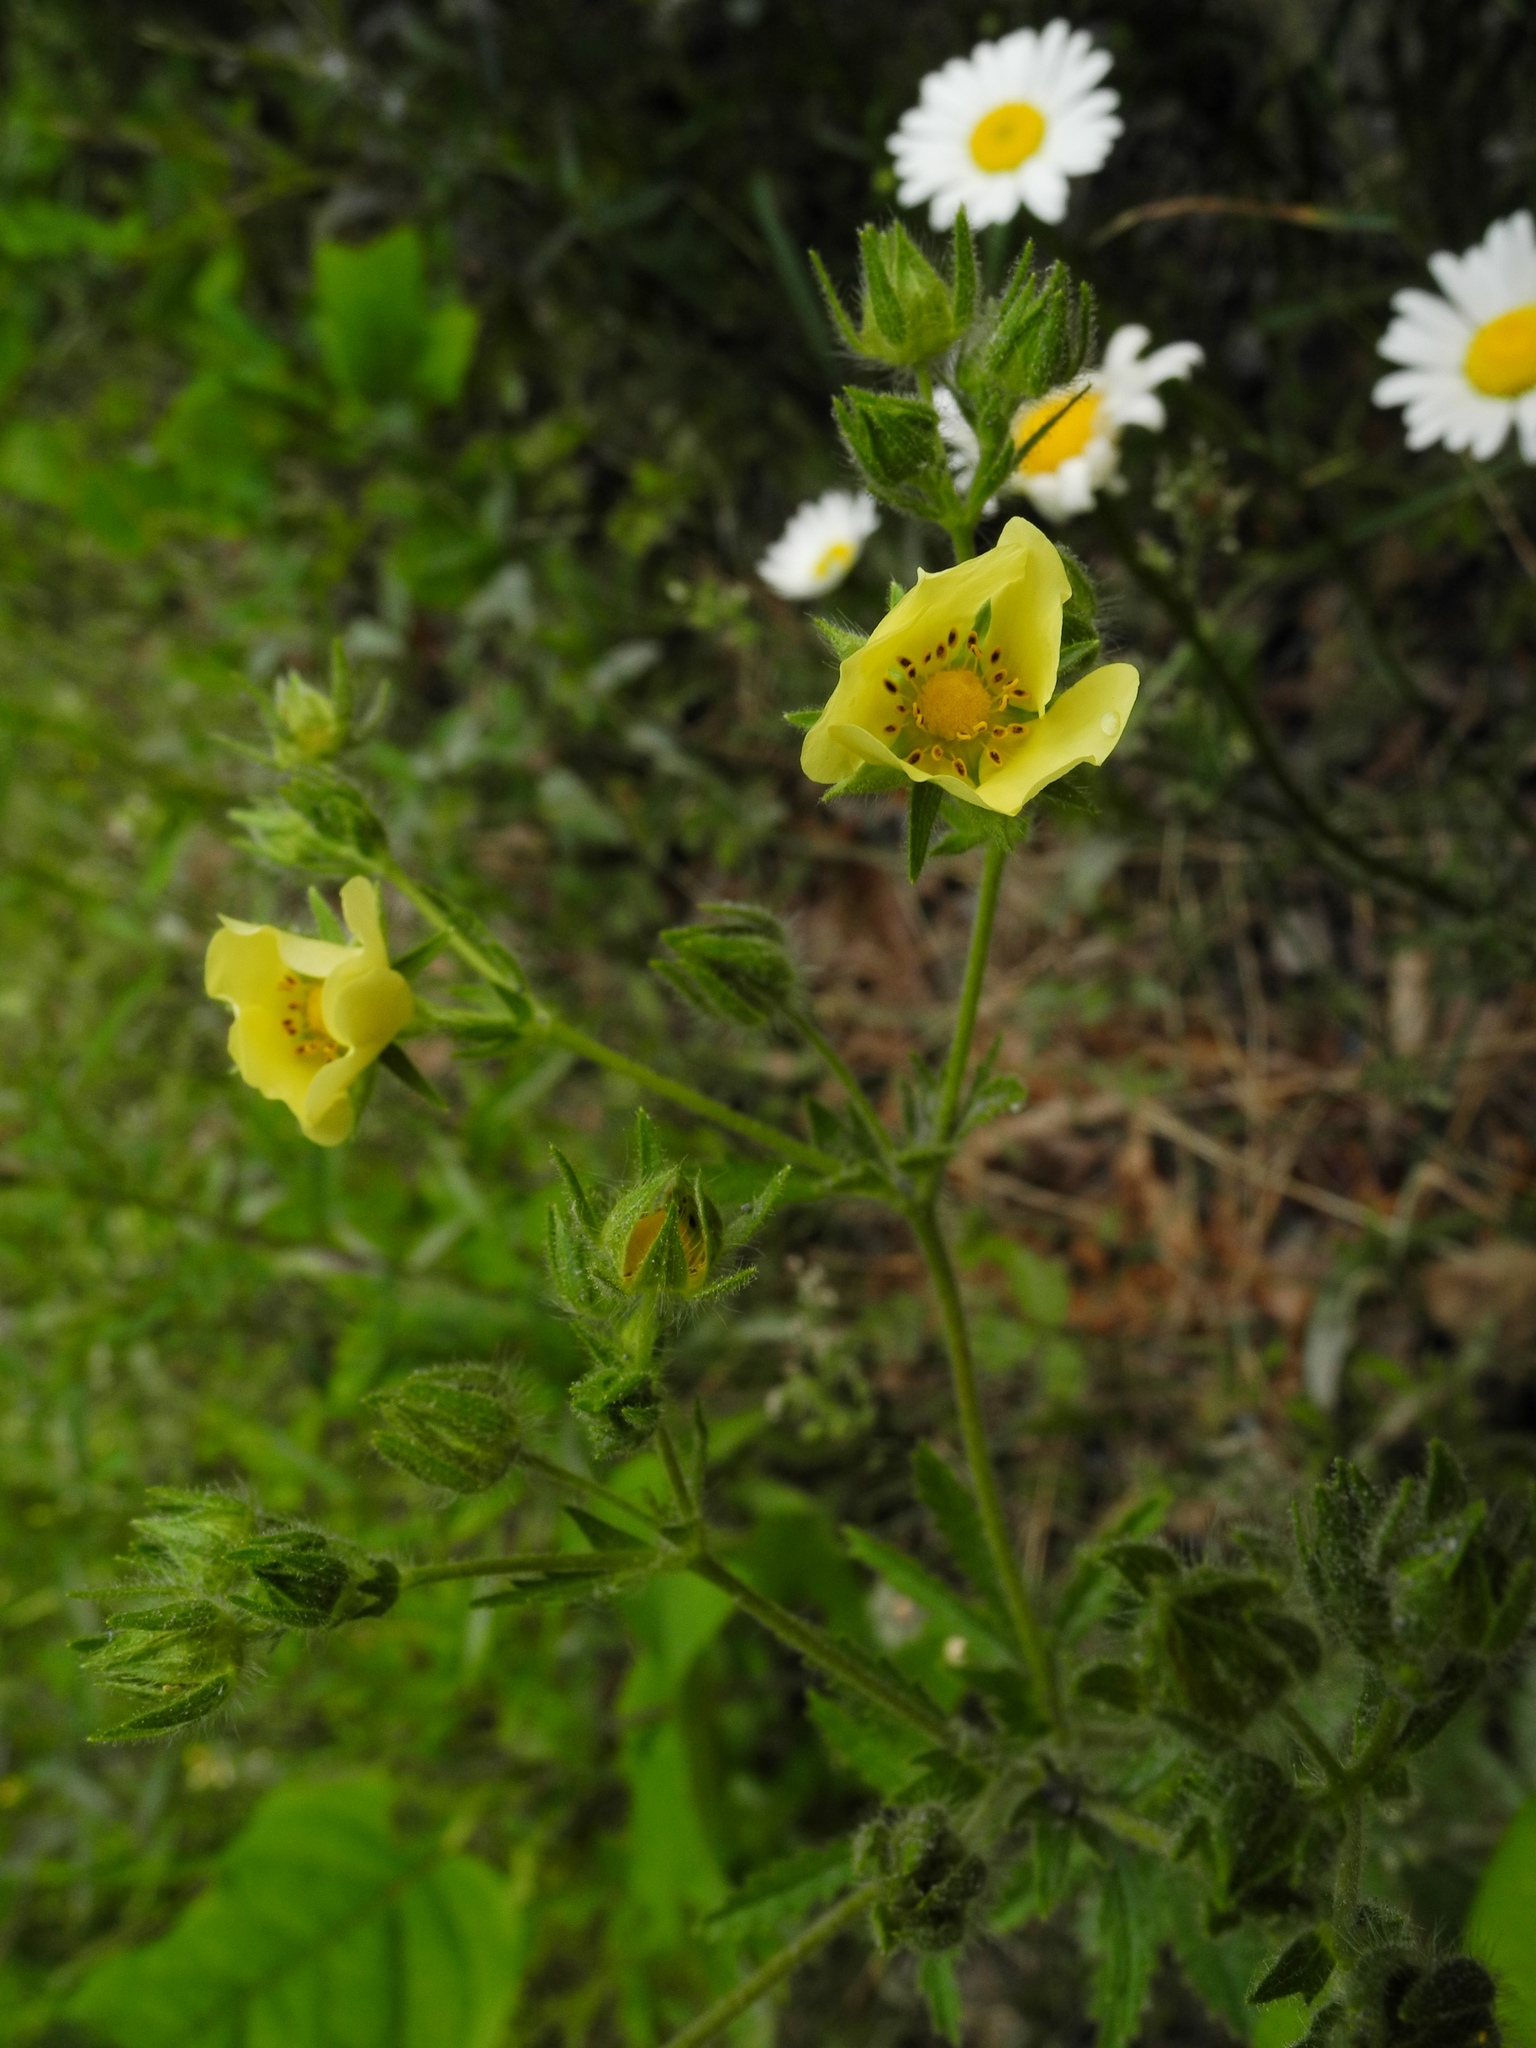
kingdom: Plantae
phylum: Tracheophyta
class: Magnoliopsida
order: Rosales
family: Rosaceae
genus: Potentilla
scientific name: Potentilla recta
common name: Sulphur cinquefoil
